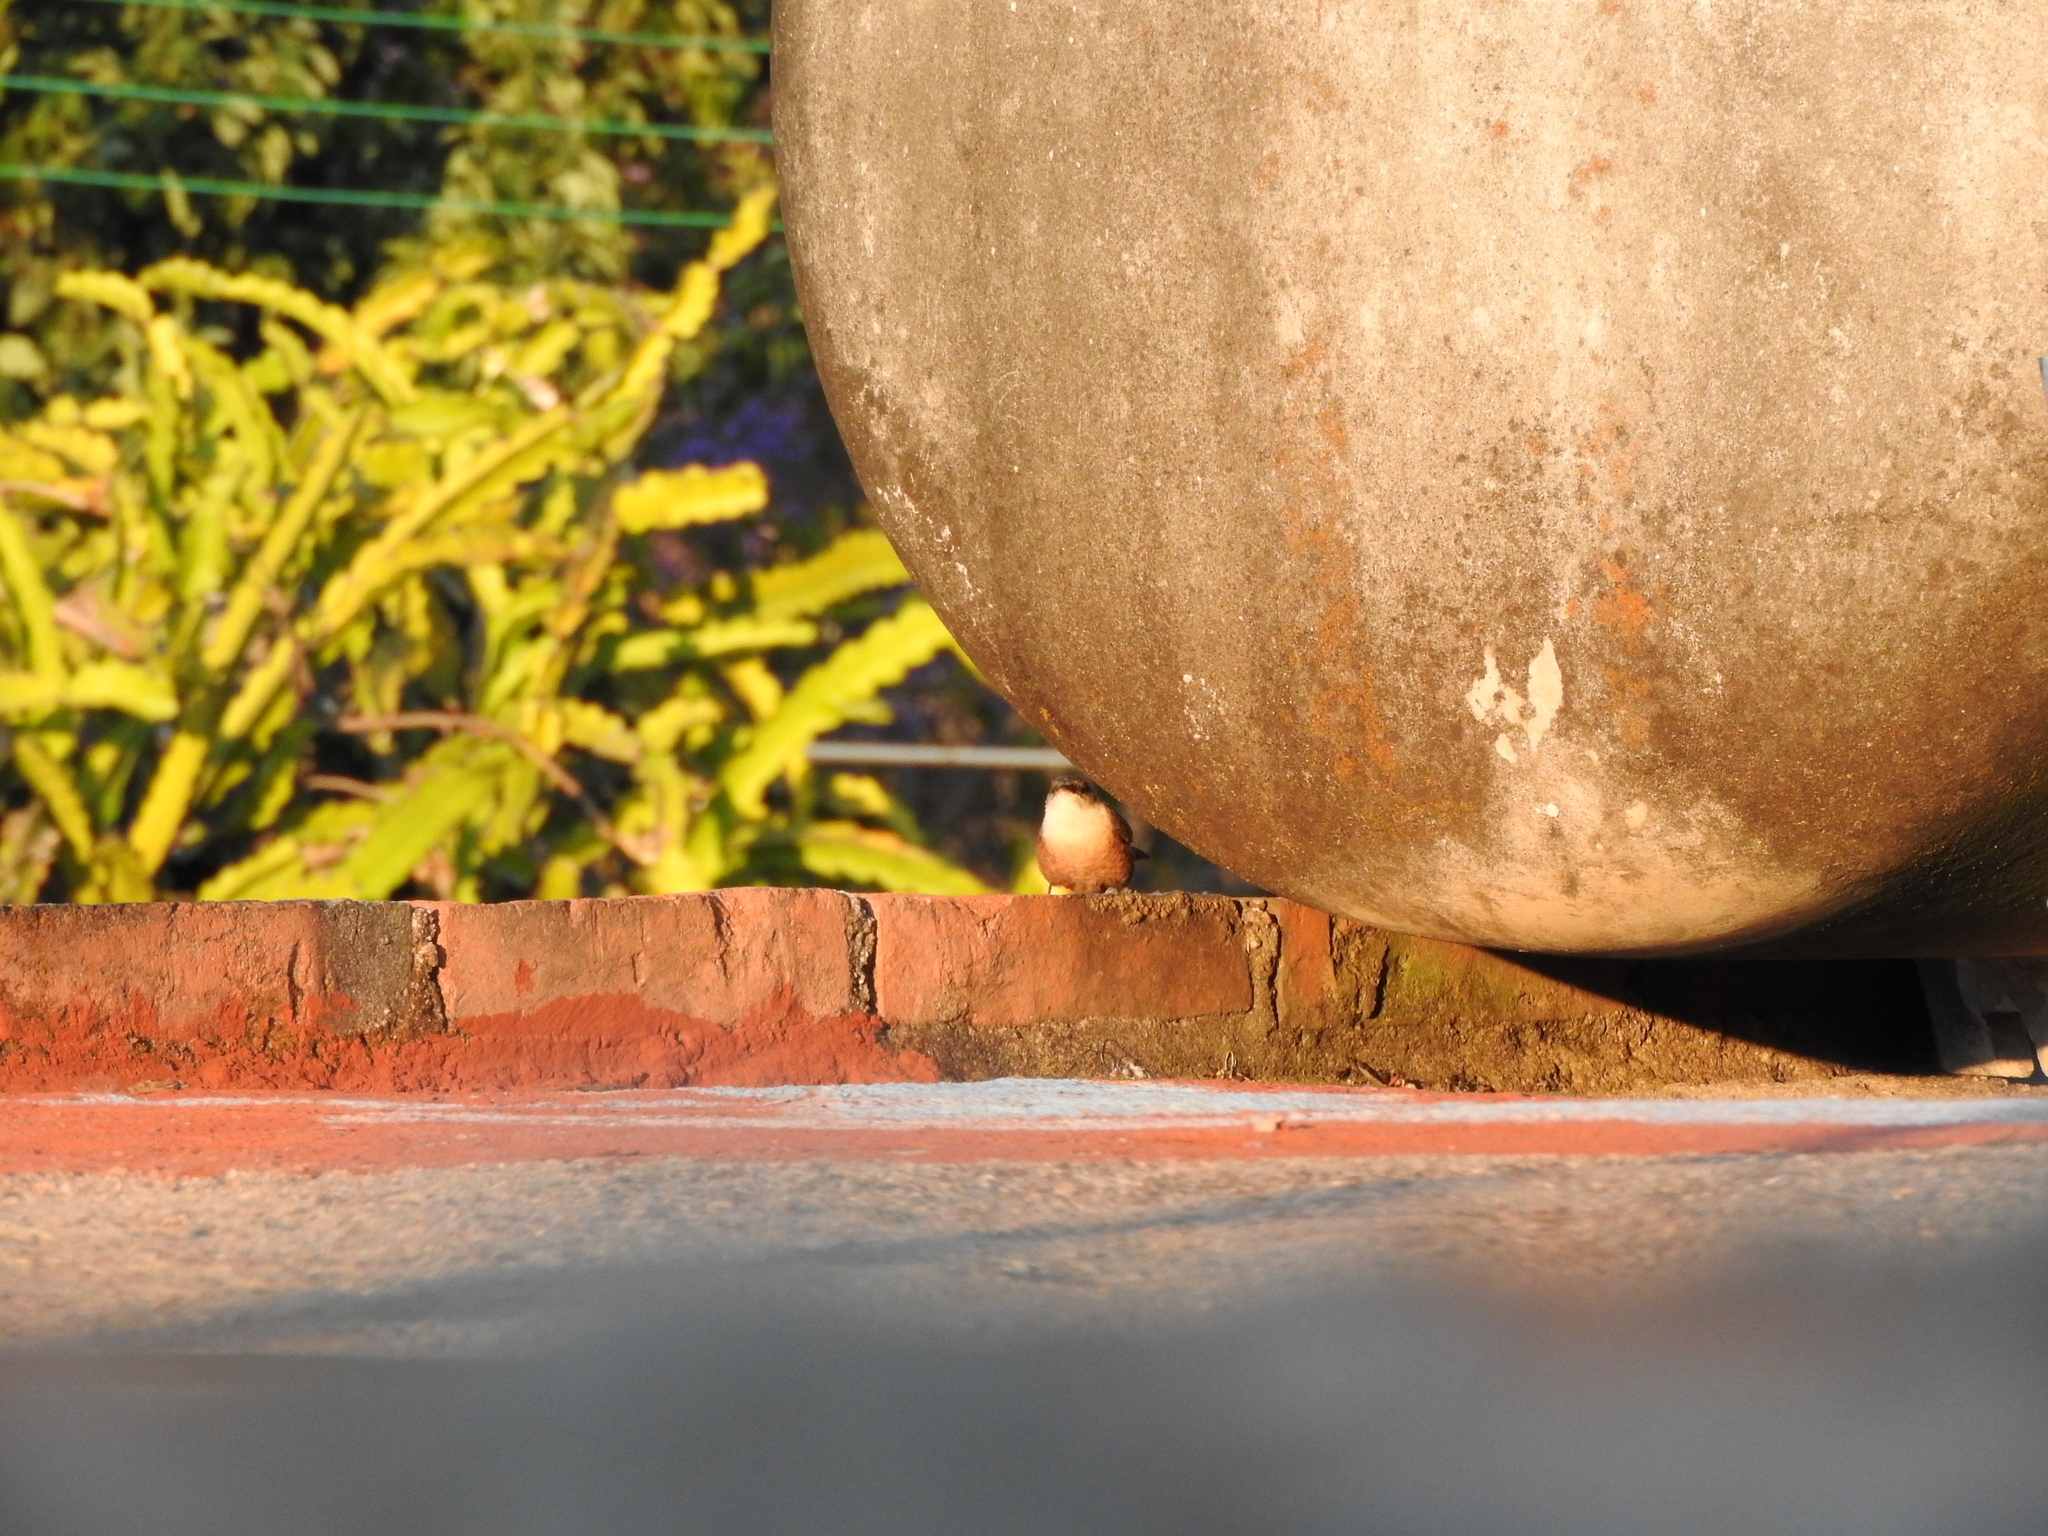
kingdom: Animalia
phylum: Chordata
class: Aves
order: Passeriformes
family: Troglodytidae
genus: Catherpes
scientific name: Catherpes mexicanus
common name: Canyon wren
